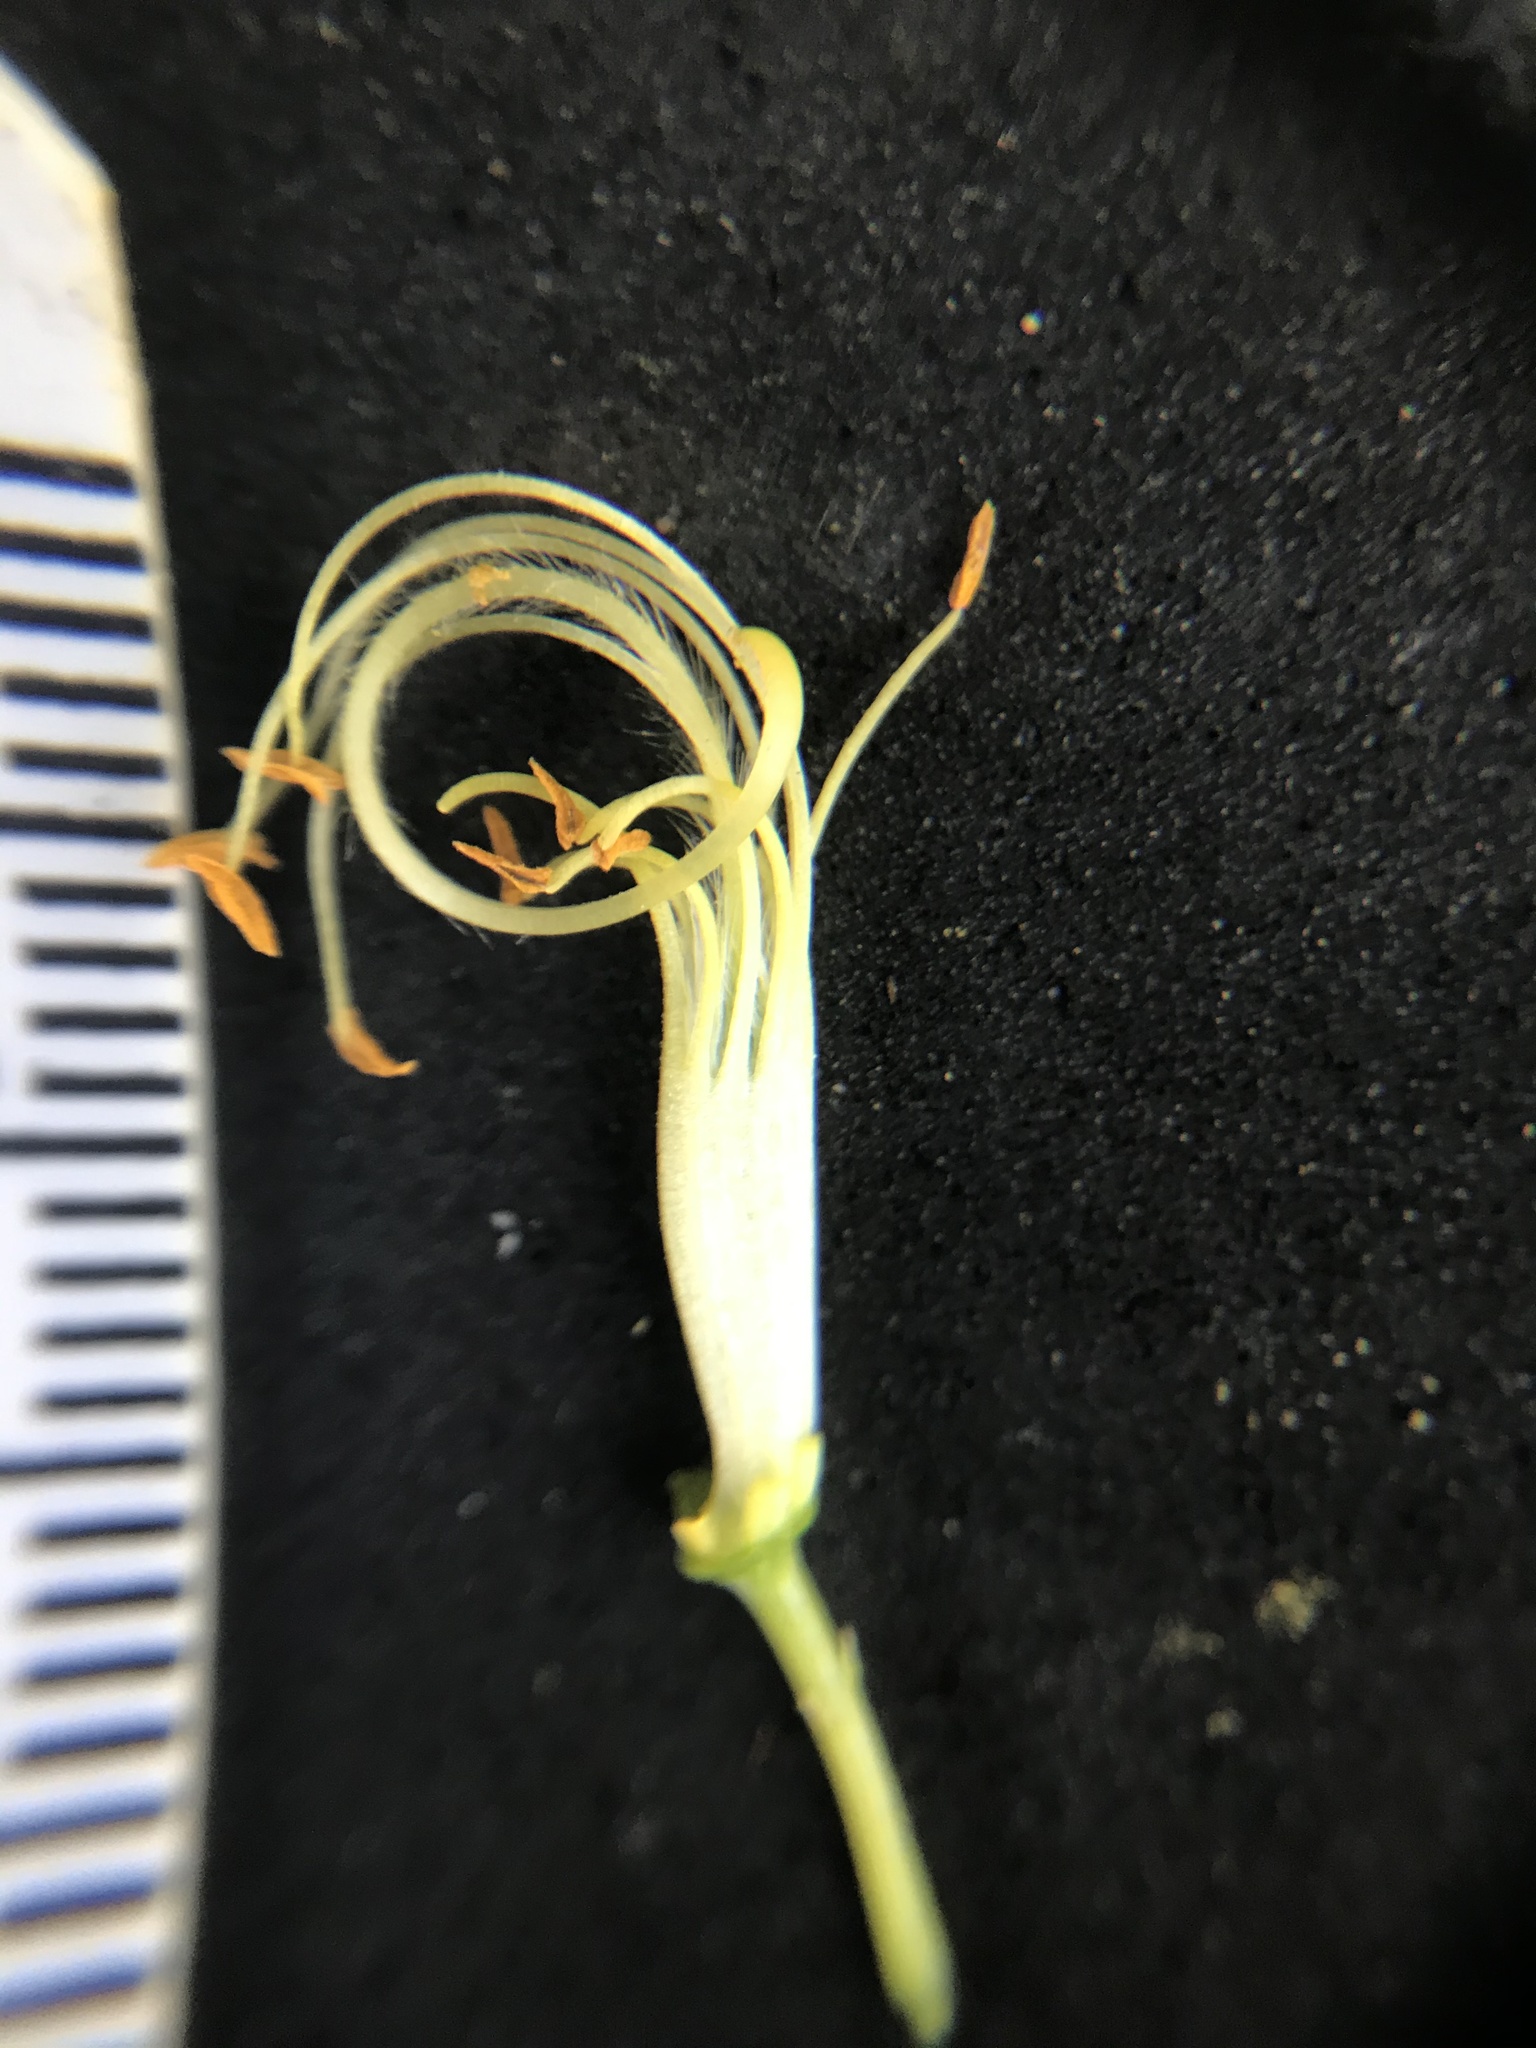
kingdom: Plantae
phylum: Tracheophyta
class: Magnoliopsida
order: Fabales
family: Fabaceae
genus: Cytisus
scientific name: Cytisus scoparius
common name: Scotch broom
